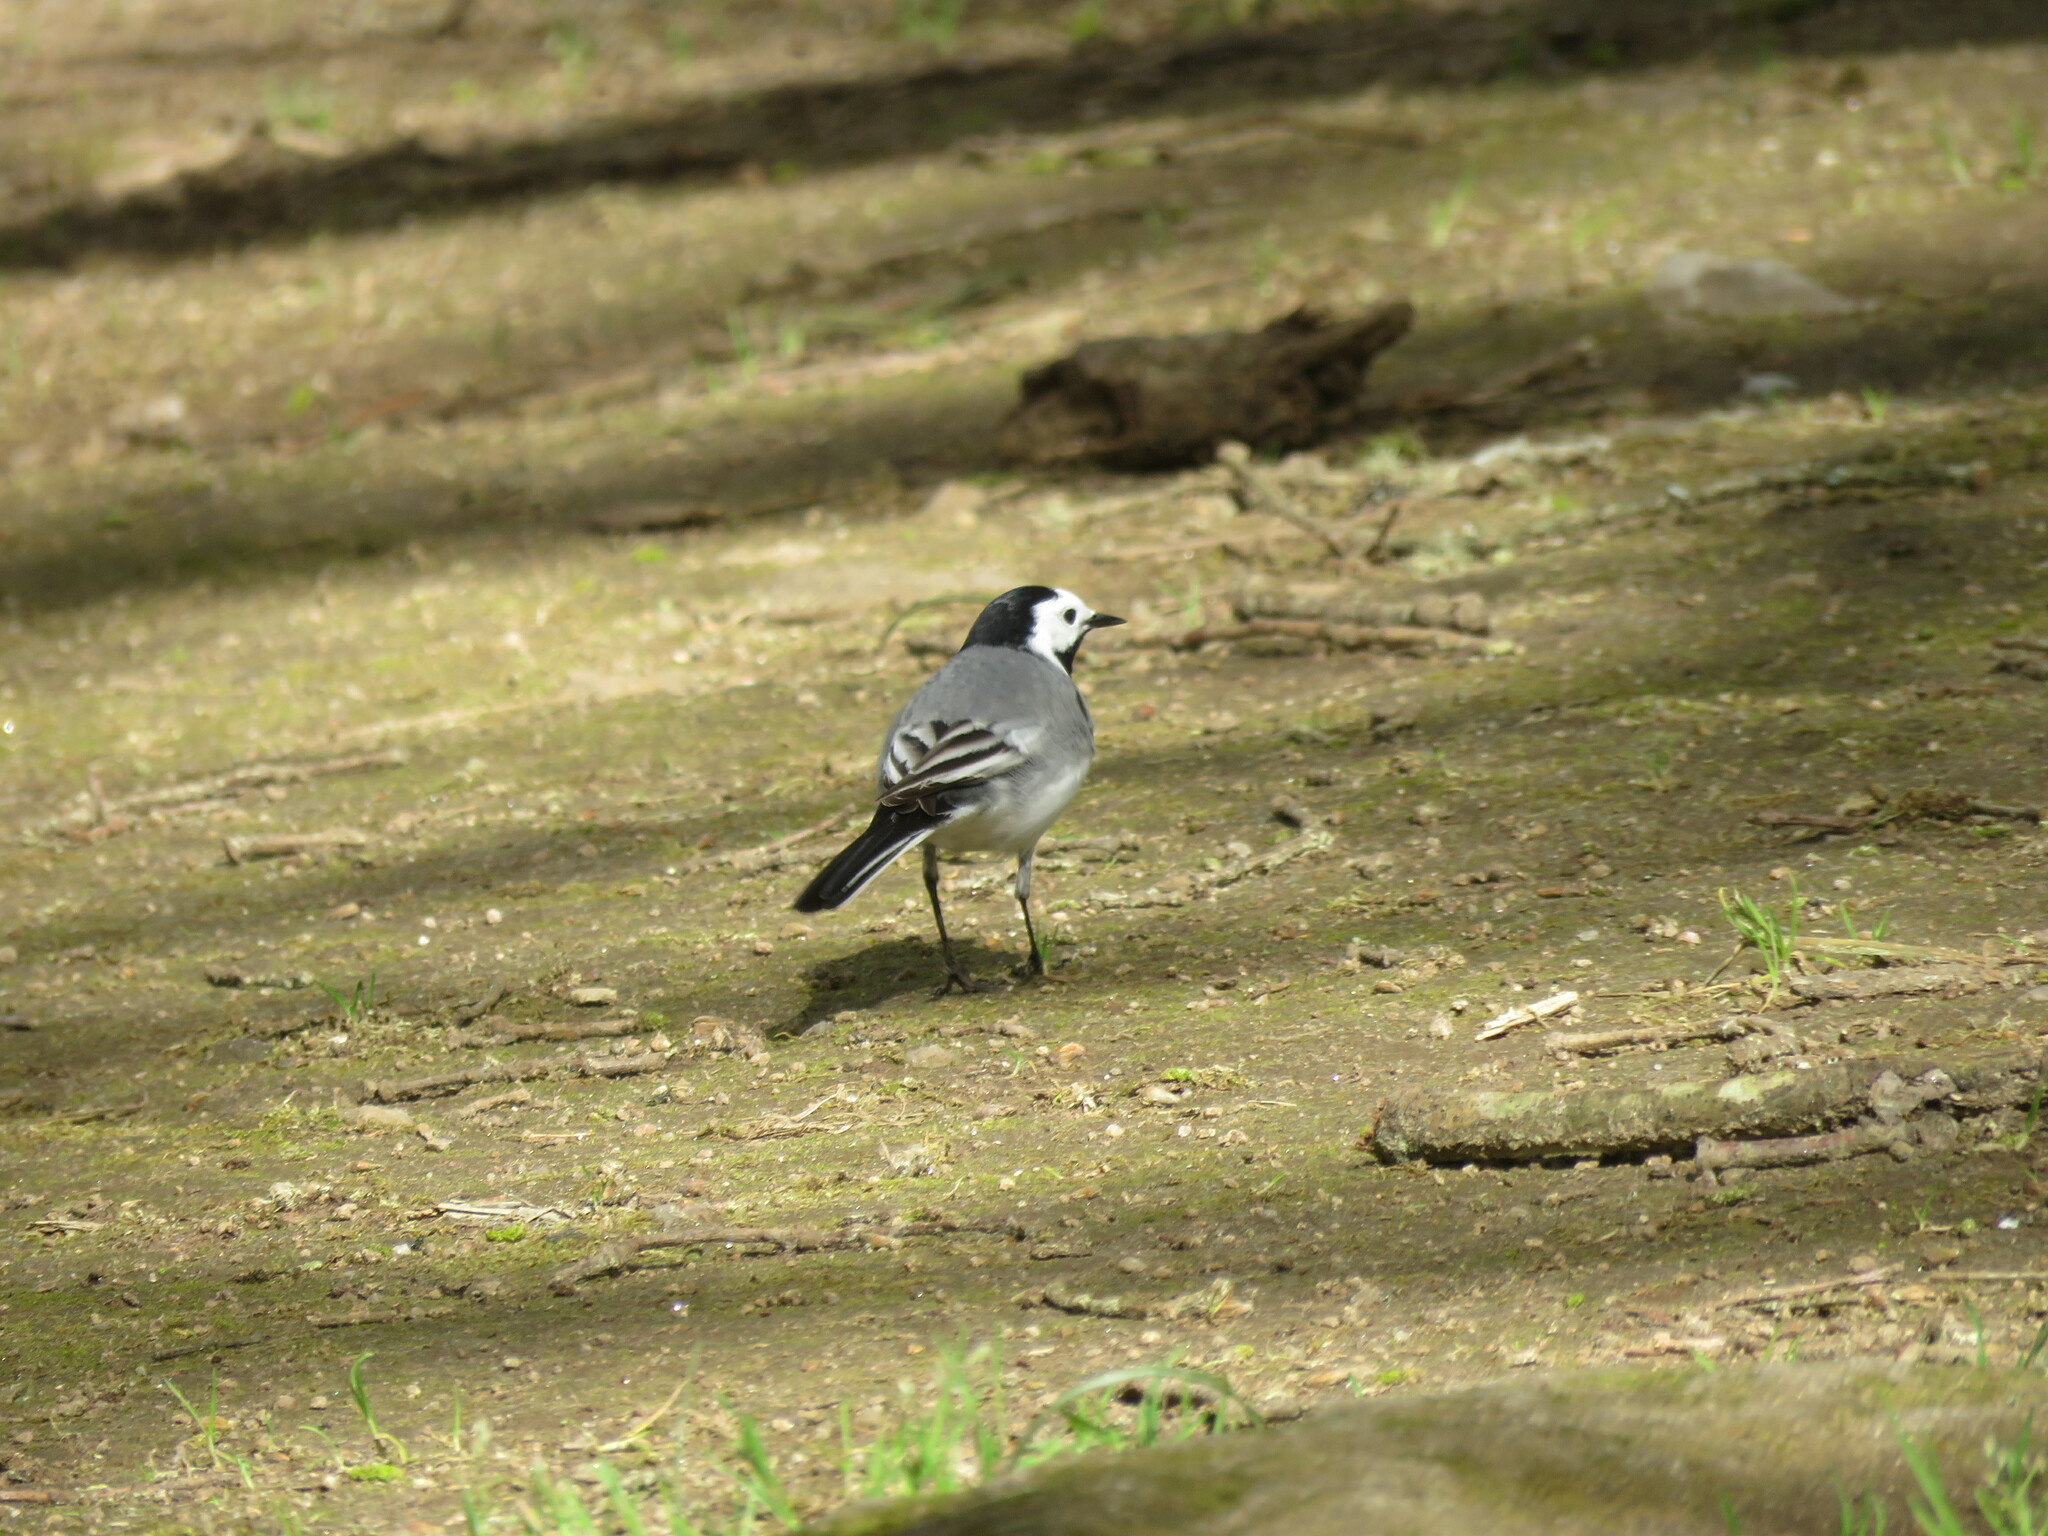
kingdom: Animalia
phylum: Chordata
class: Aves
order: Passeriformes
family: Motacillidae
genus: Motacilla
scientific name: Motacilla alba
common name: White wagtail
